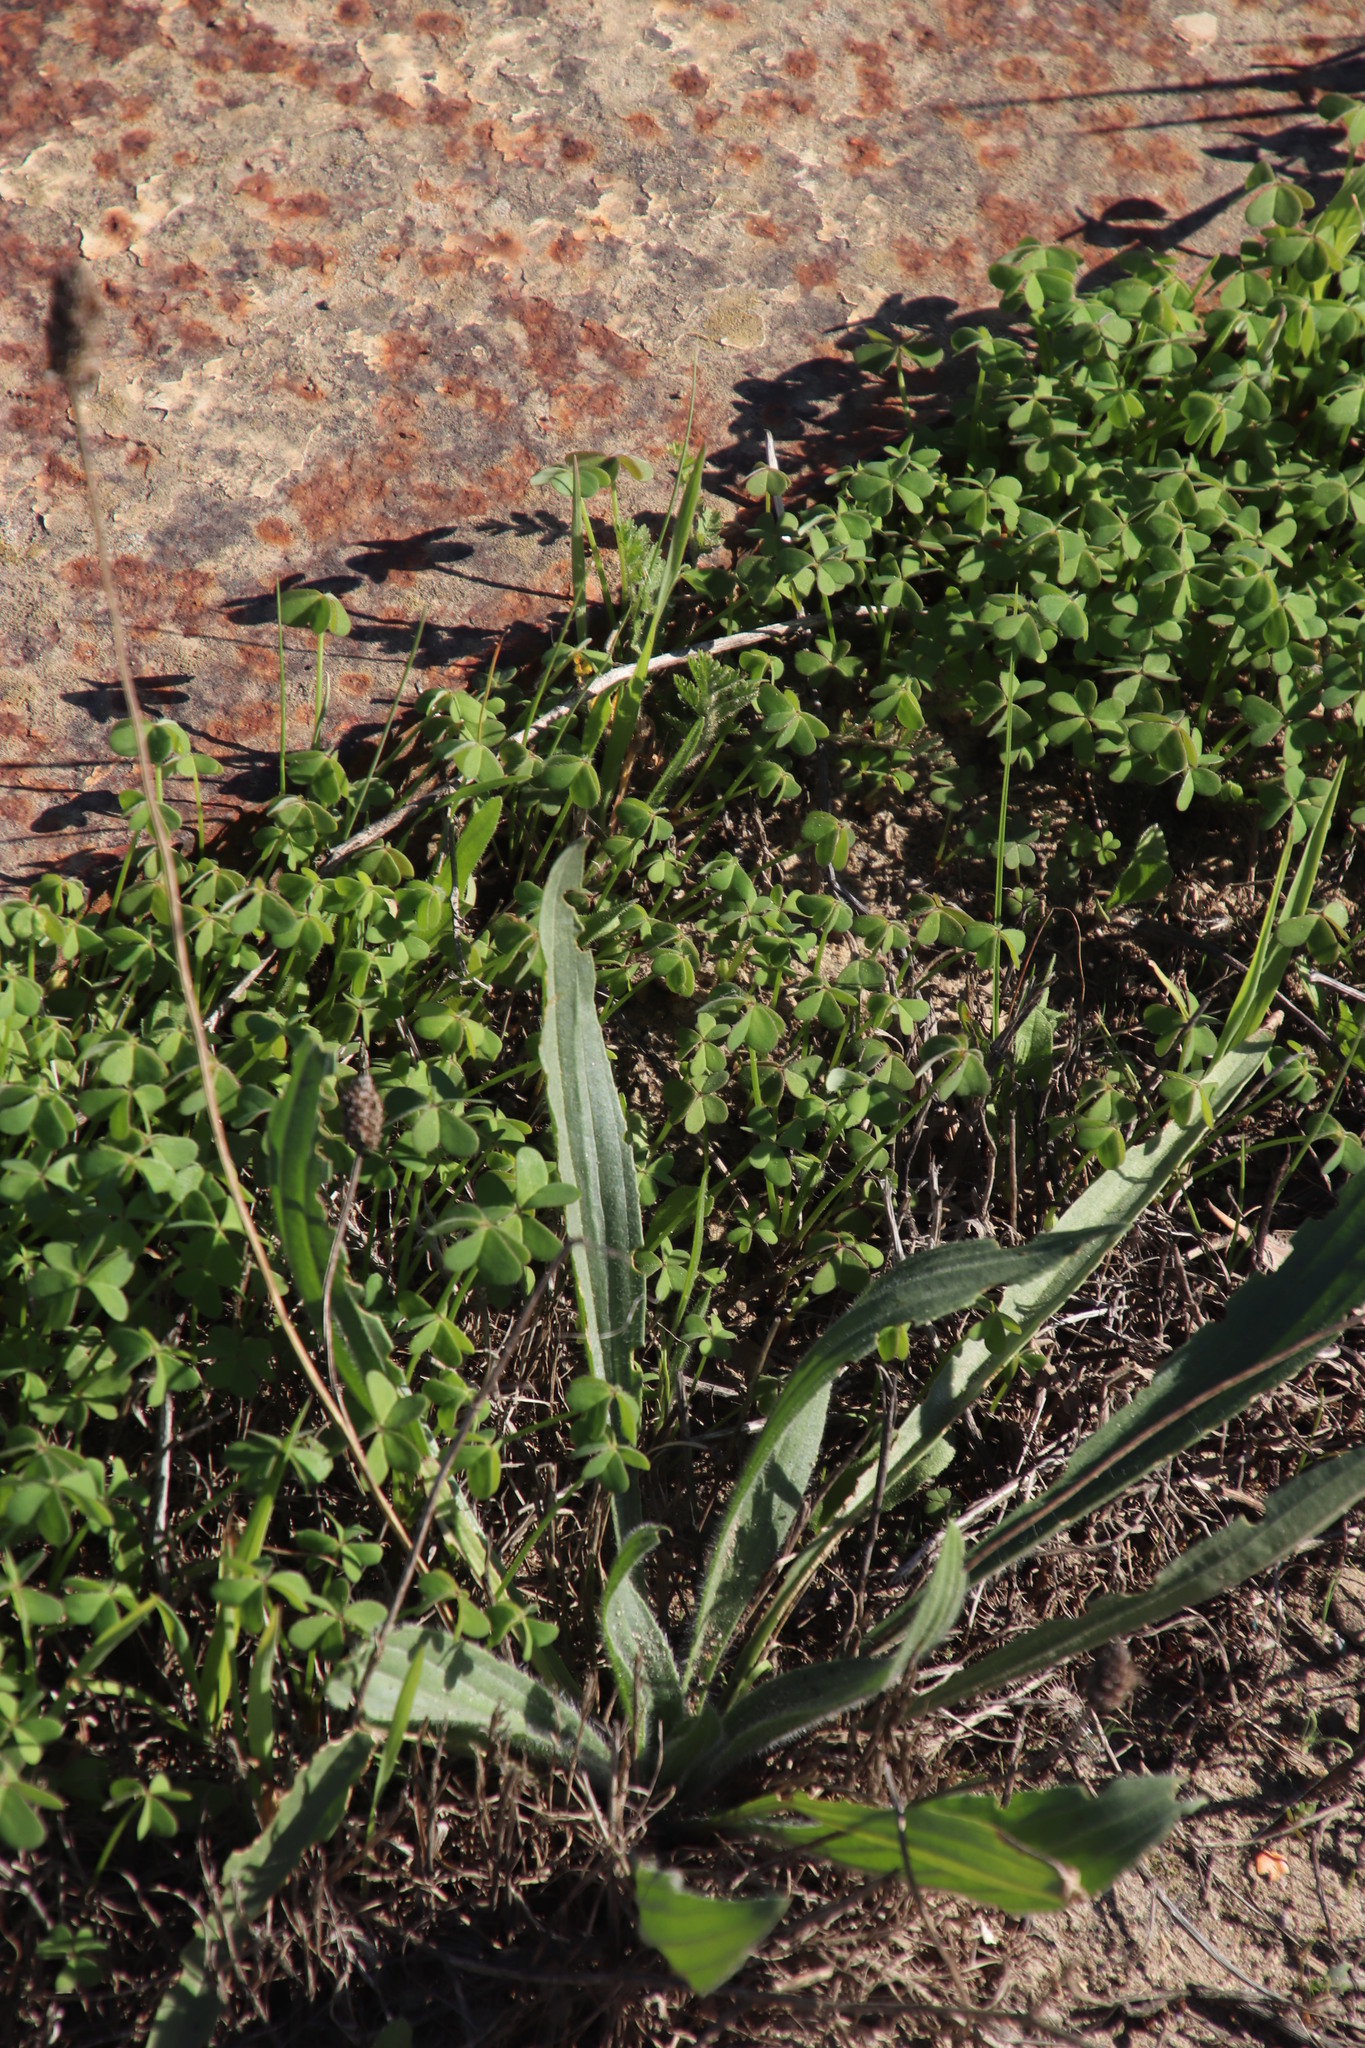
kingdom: Plantae
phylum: Tracheophyta
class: Magnoliopsida
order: Lamiales
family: Plantaginaceae
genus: Plantago
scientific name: Plantago lanceolata
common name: Ribwort plantain
